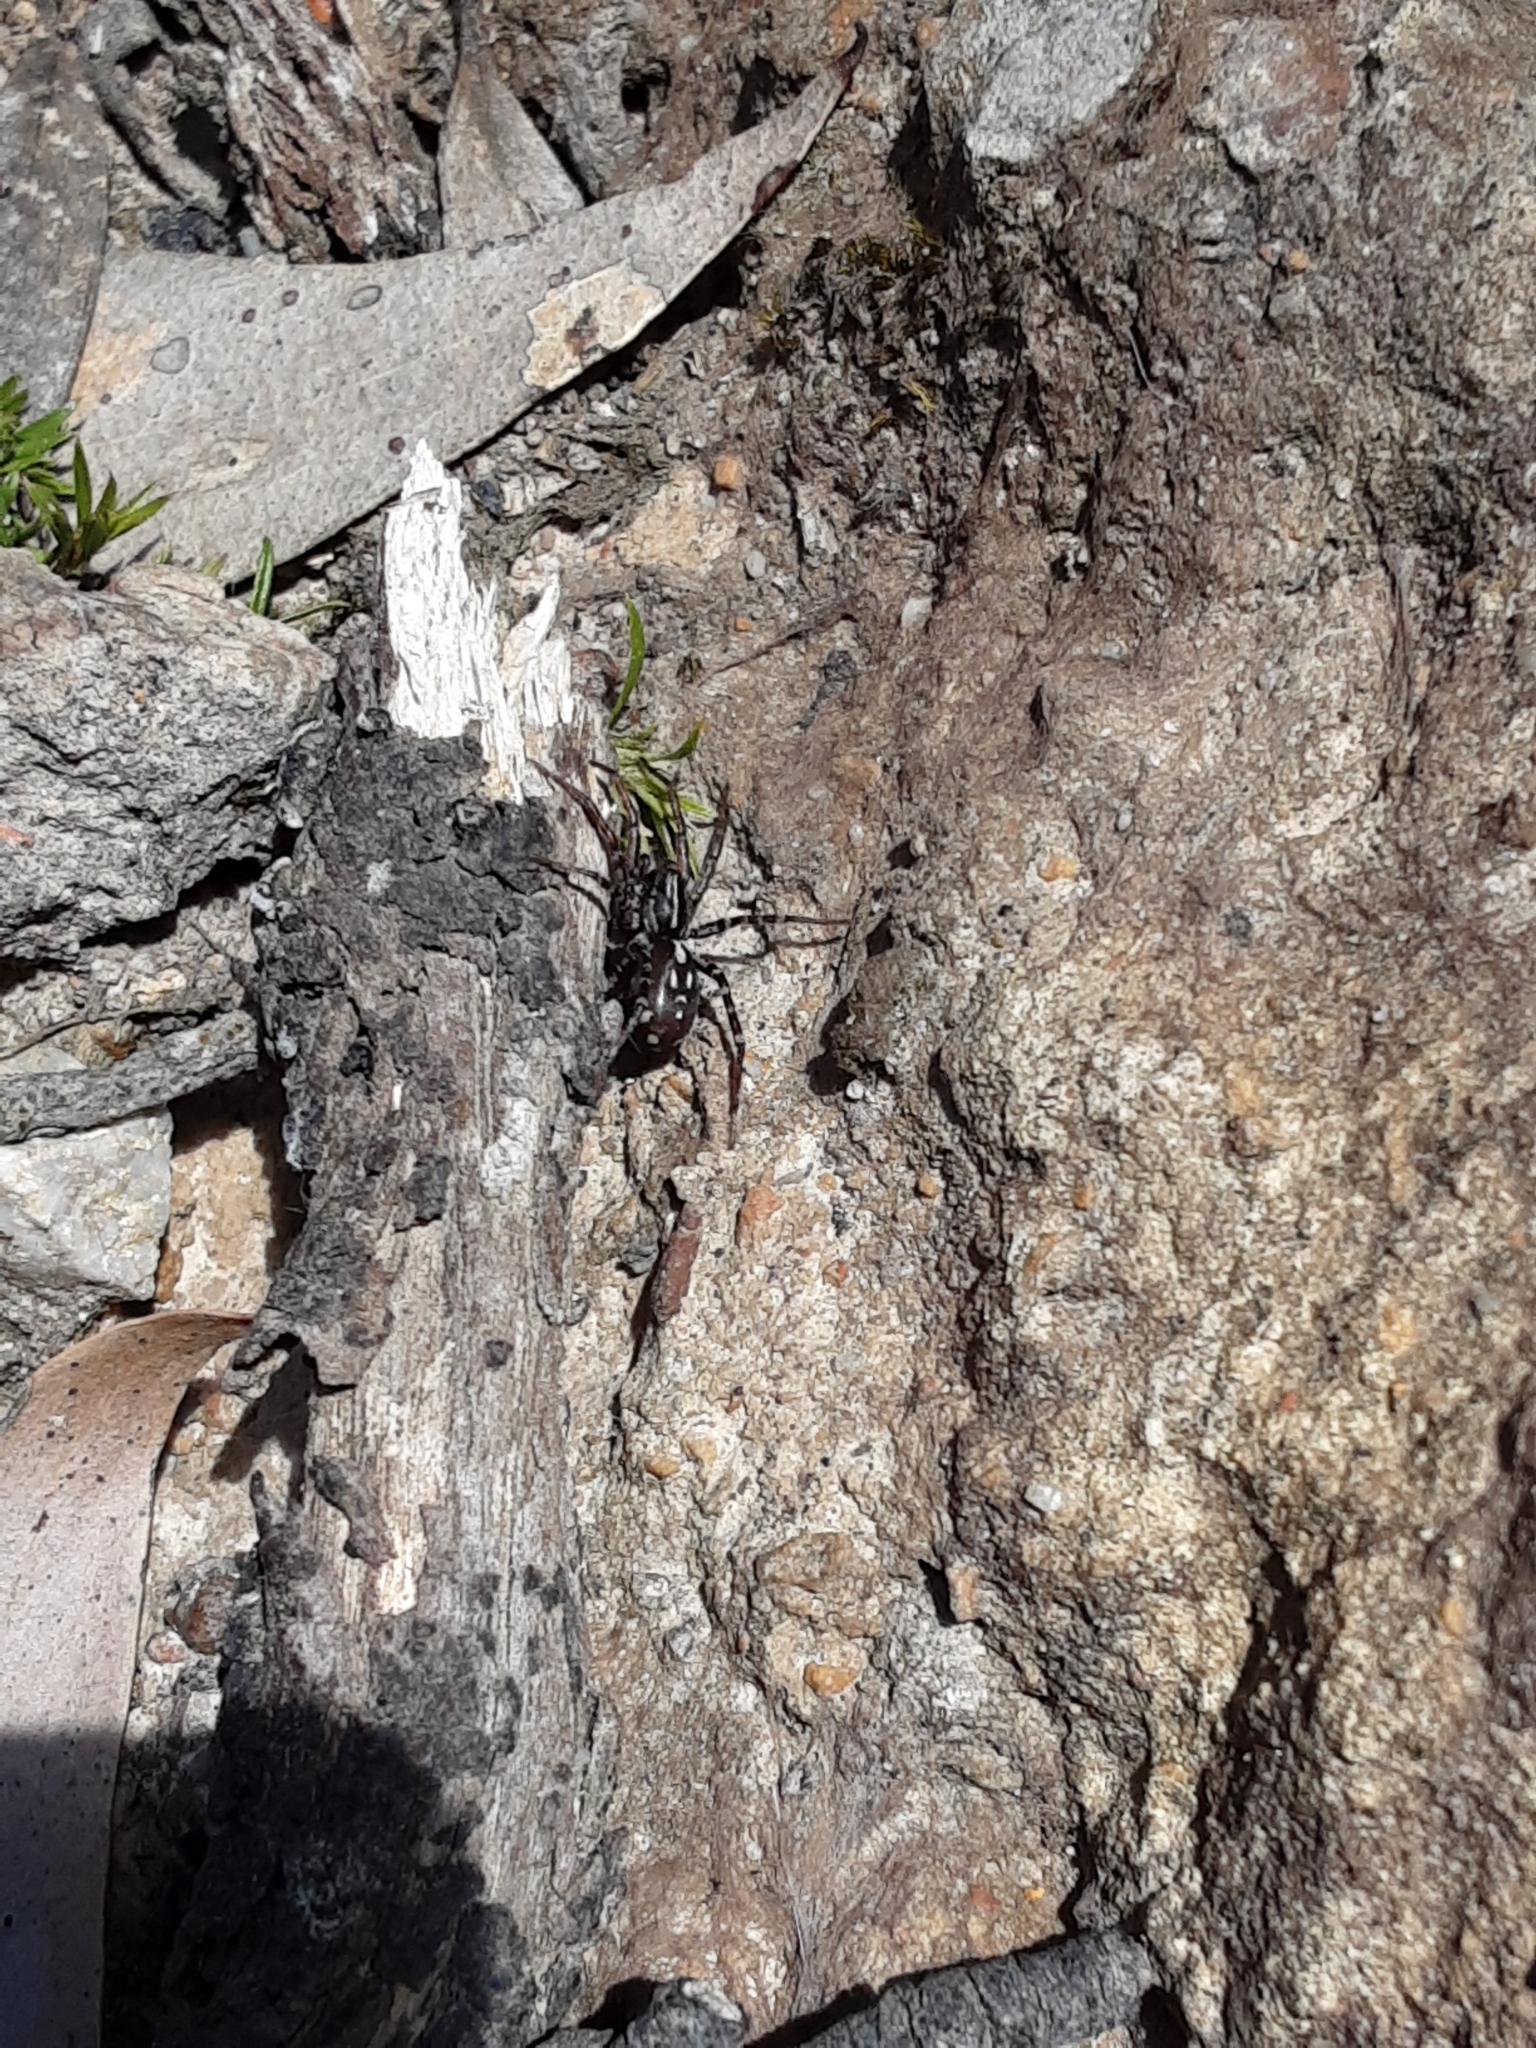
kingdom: Animalia
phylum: Arthropoda
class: Arachnida
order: Araneae
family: Corinnidae
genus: Nyssus
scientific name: Nyssus coloripes
